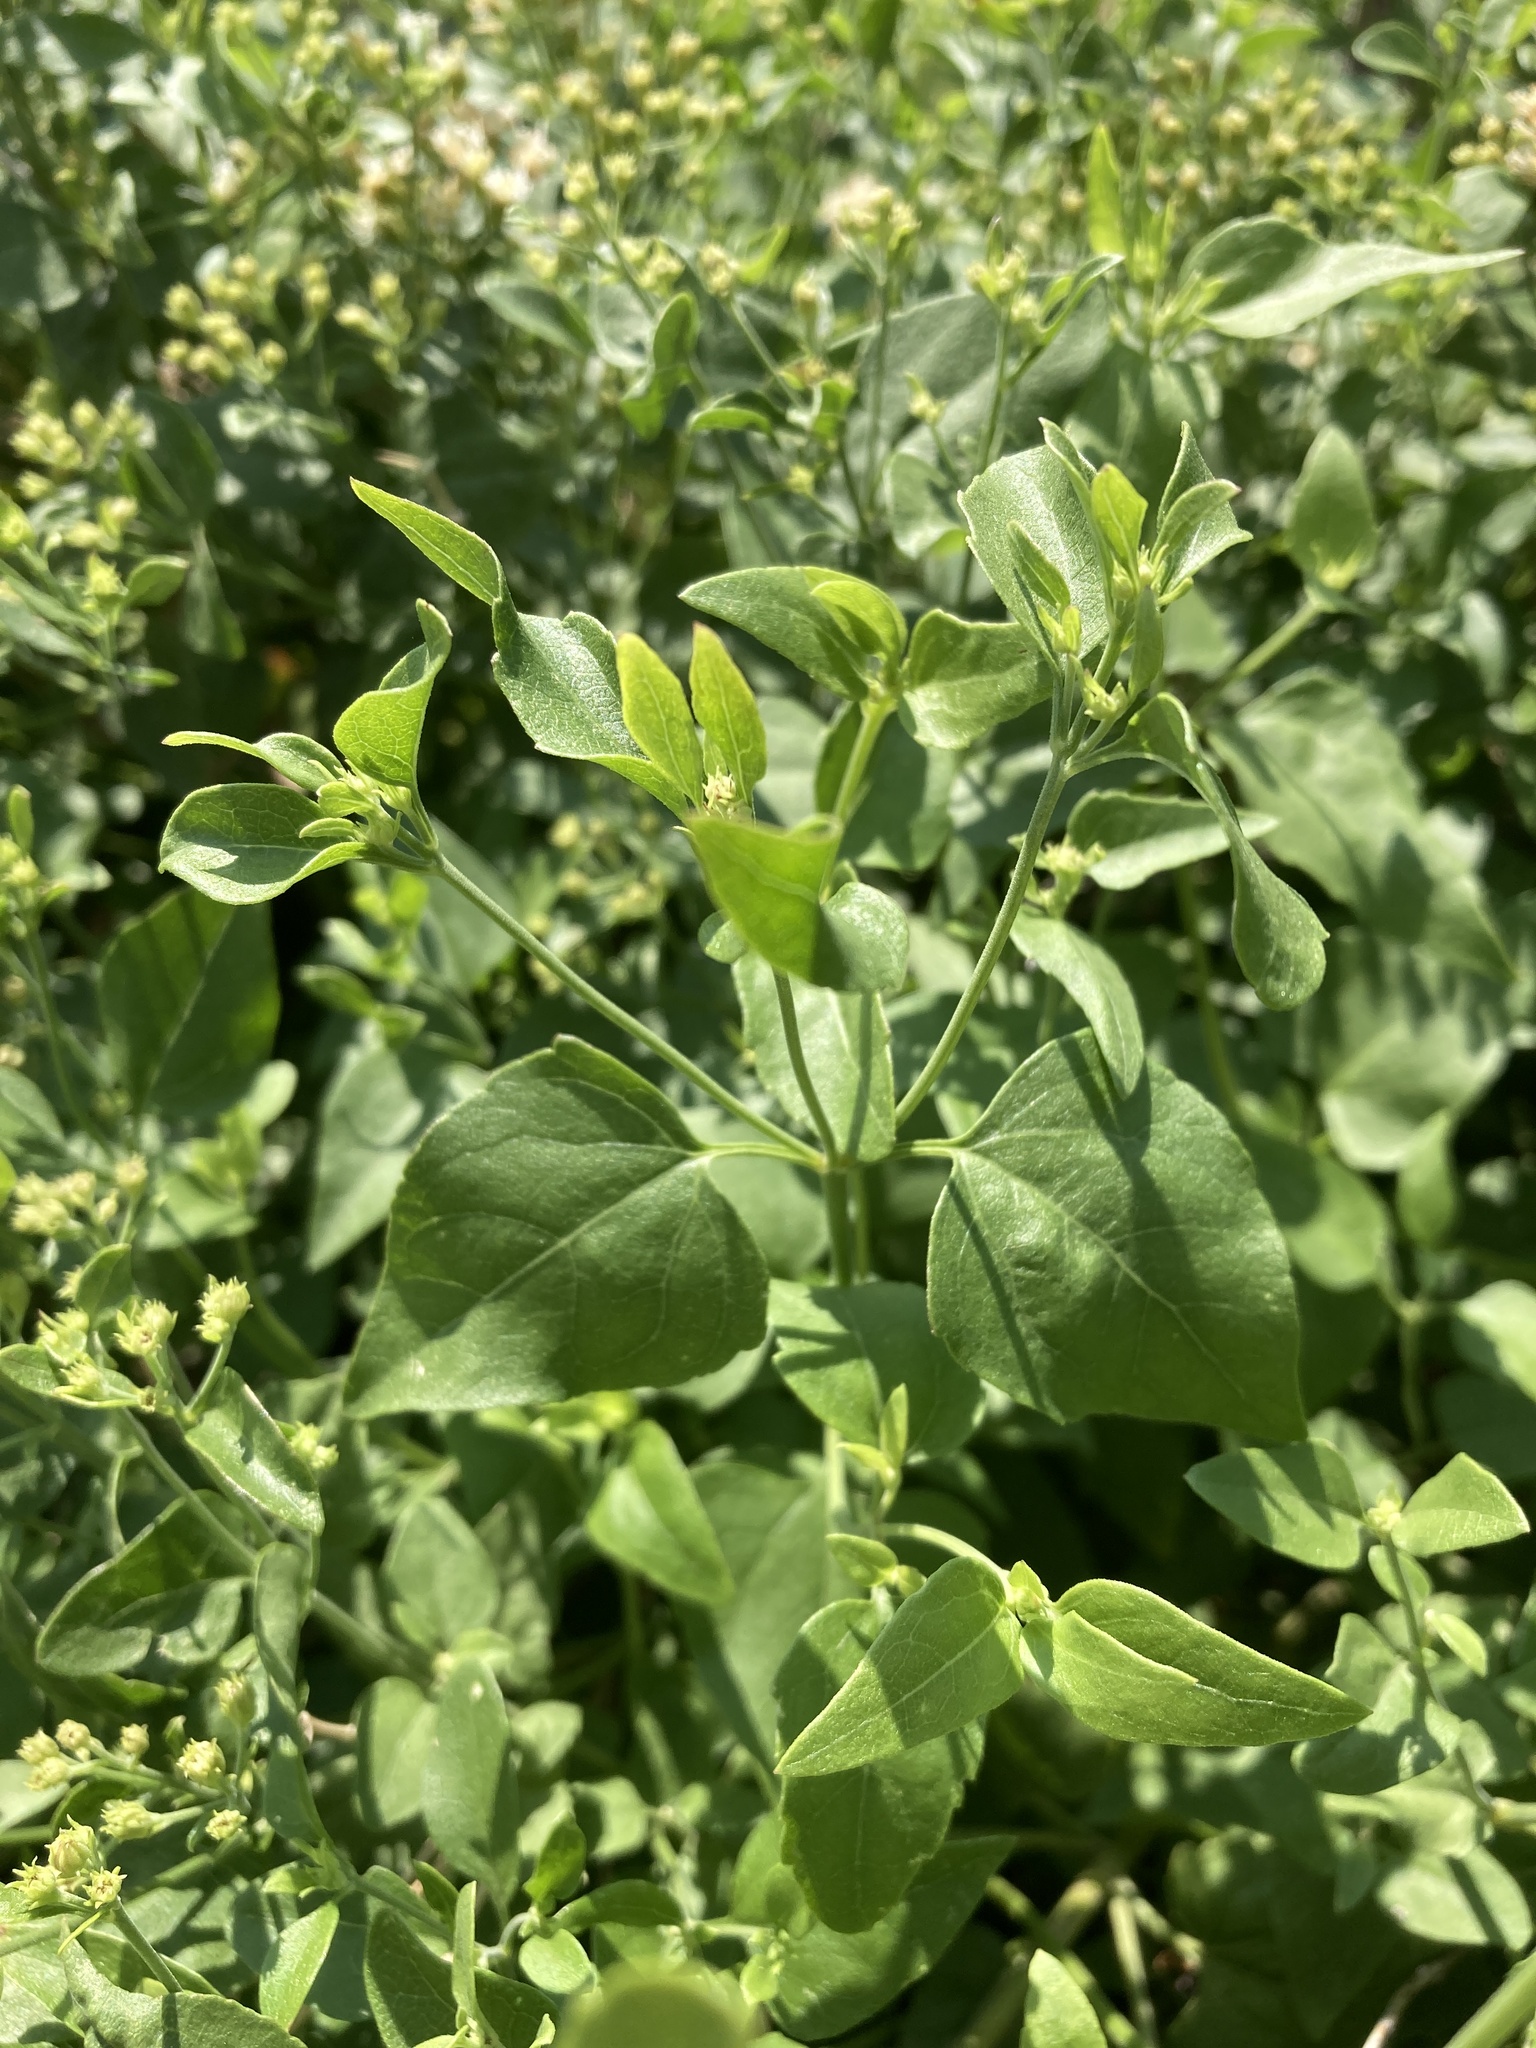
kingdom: Plantae
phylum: Tracheophyta
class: Magnoliopsida
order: Asterales
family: Asteraceae
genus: Ageratina
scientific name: Ageratina herbacea
